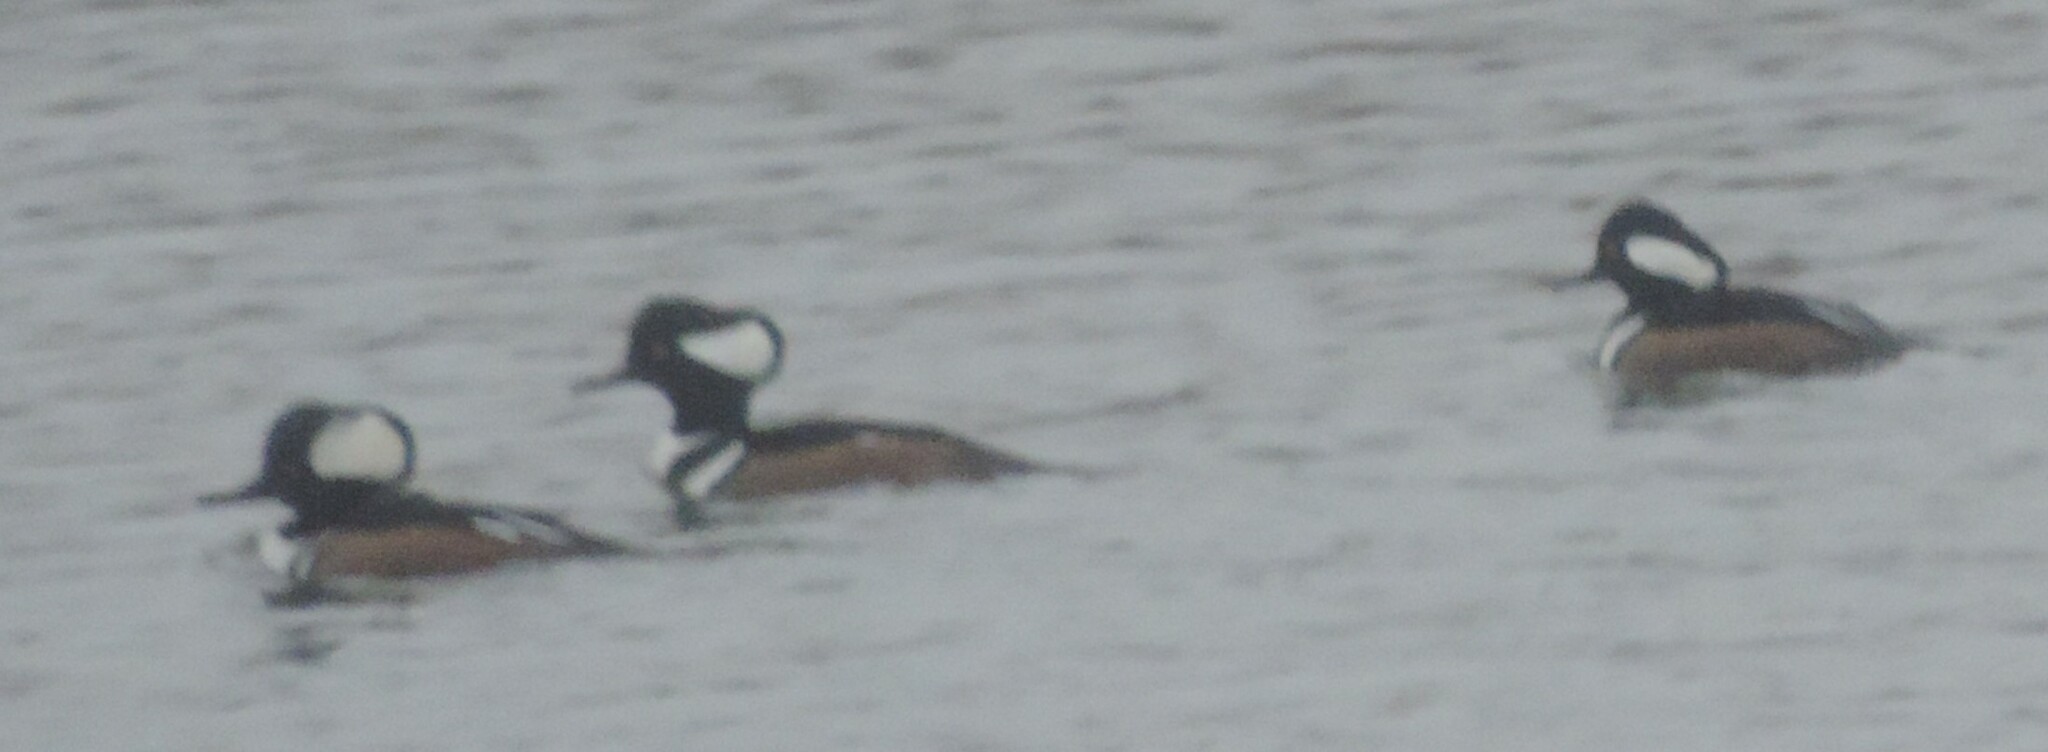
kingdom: Animalia
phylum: Chordata
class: Aves
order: Anseriformes
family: Anatidae
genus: Lophodytes
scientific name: Lophodytes cucullatus
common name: Hooded merganser
